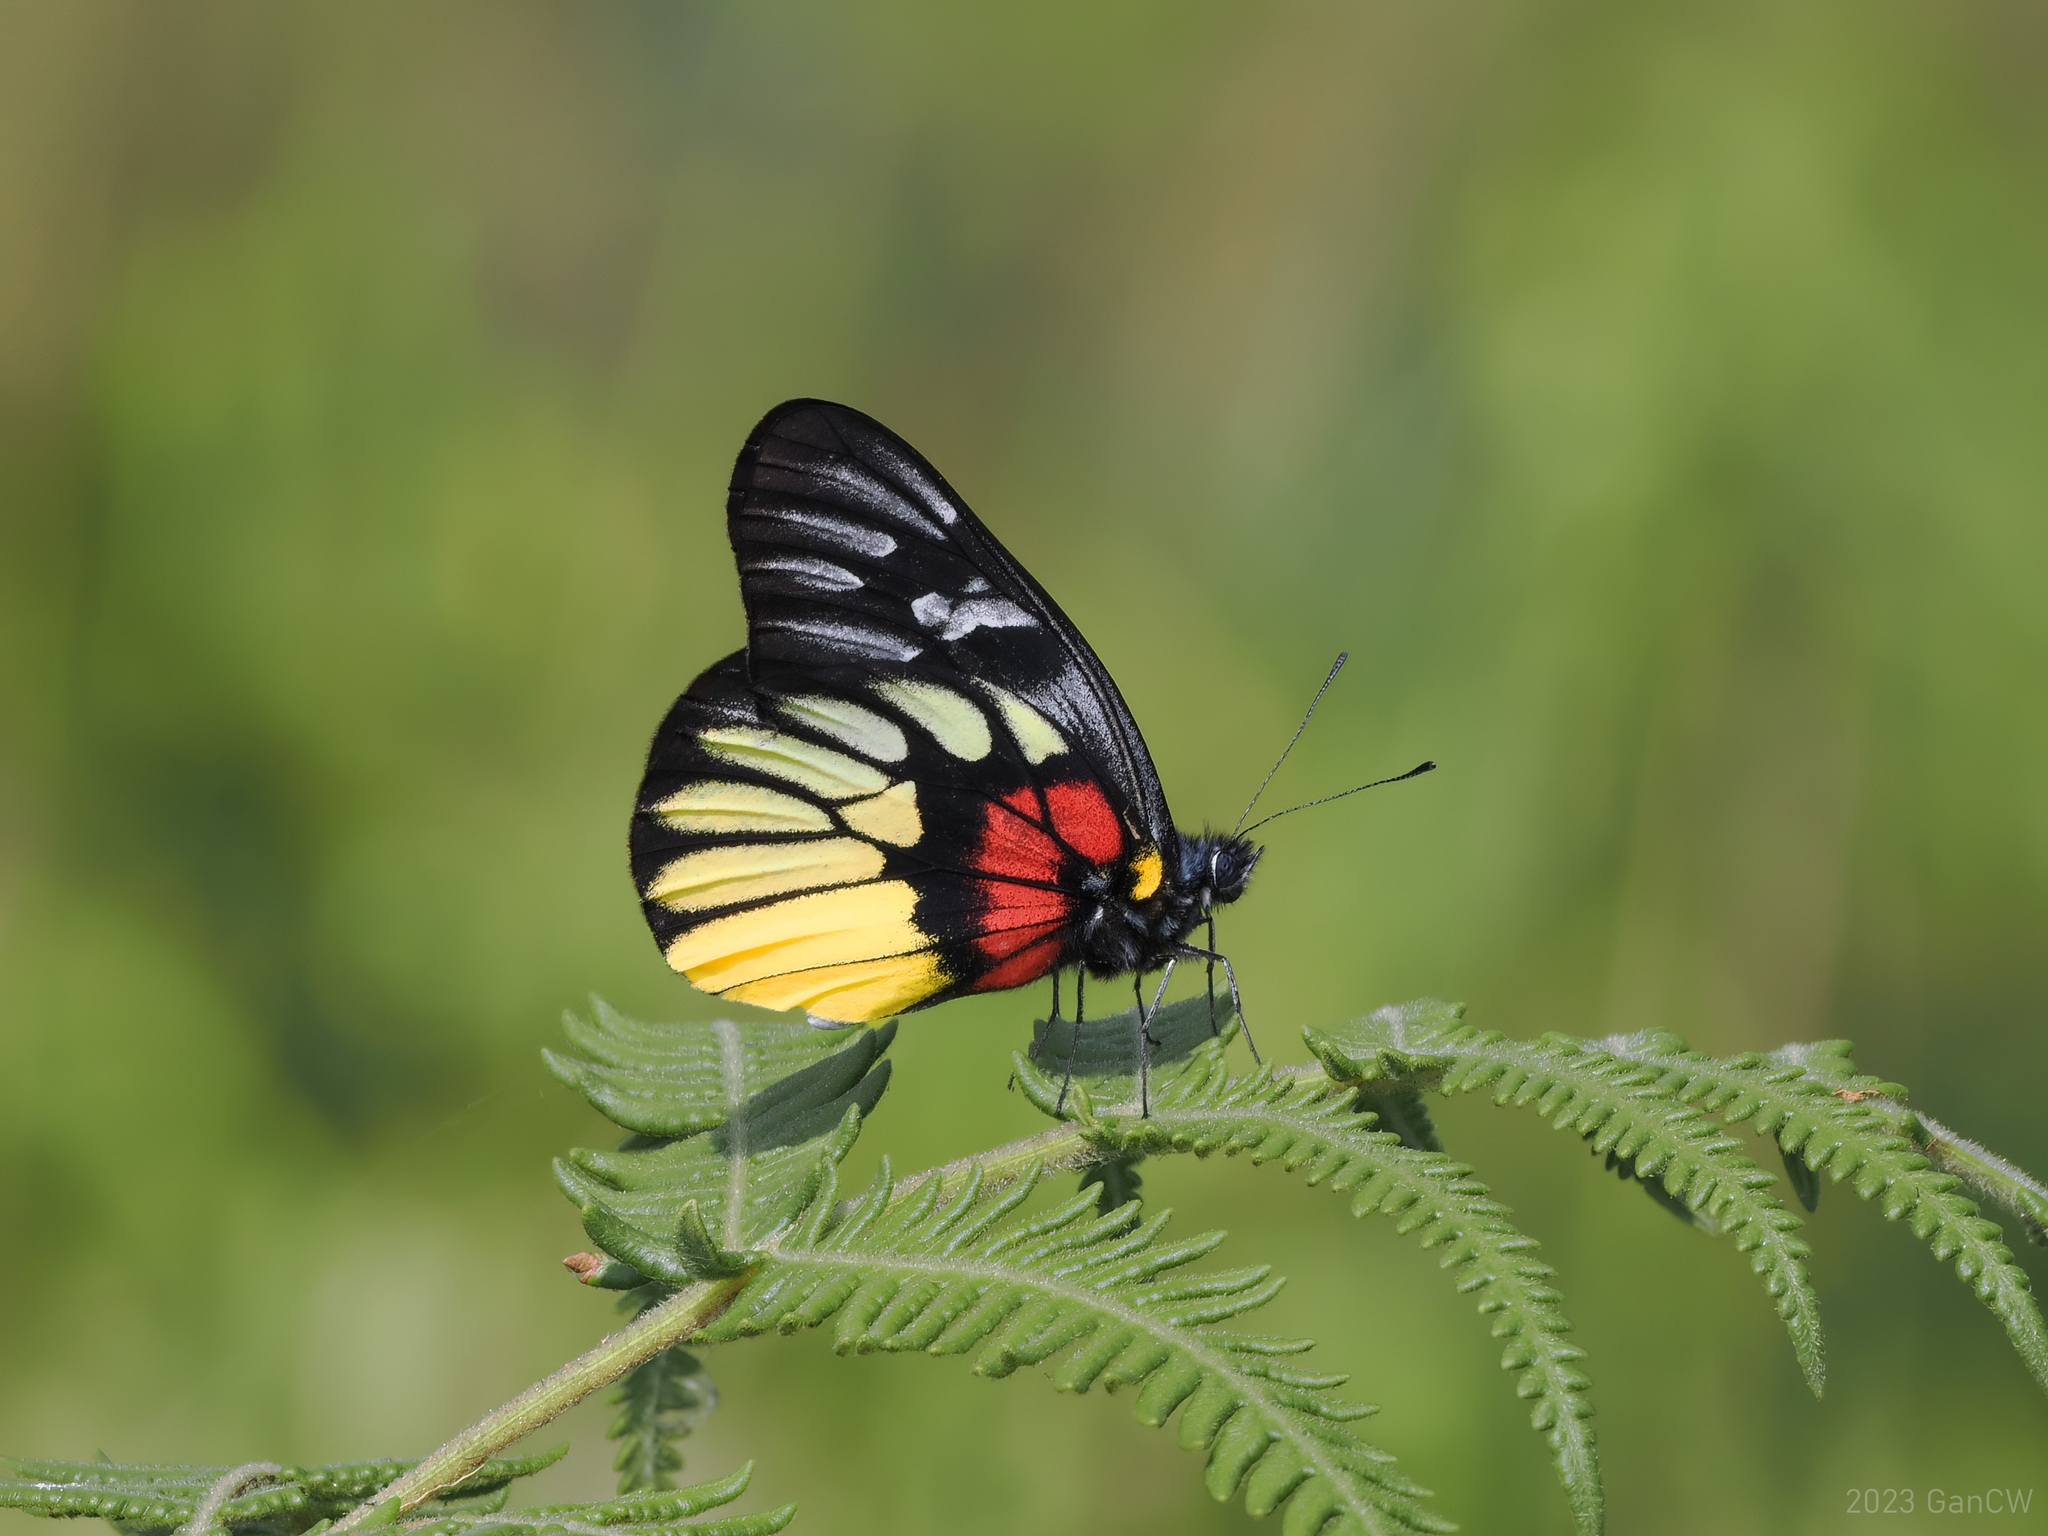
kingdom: Animalia
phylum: Arthropoda
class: Insecta
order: Lepidoptera
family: Pieridae
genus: Delias
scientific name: Delias acalis
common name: Red-breast jezebel
